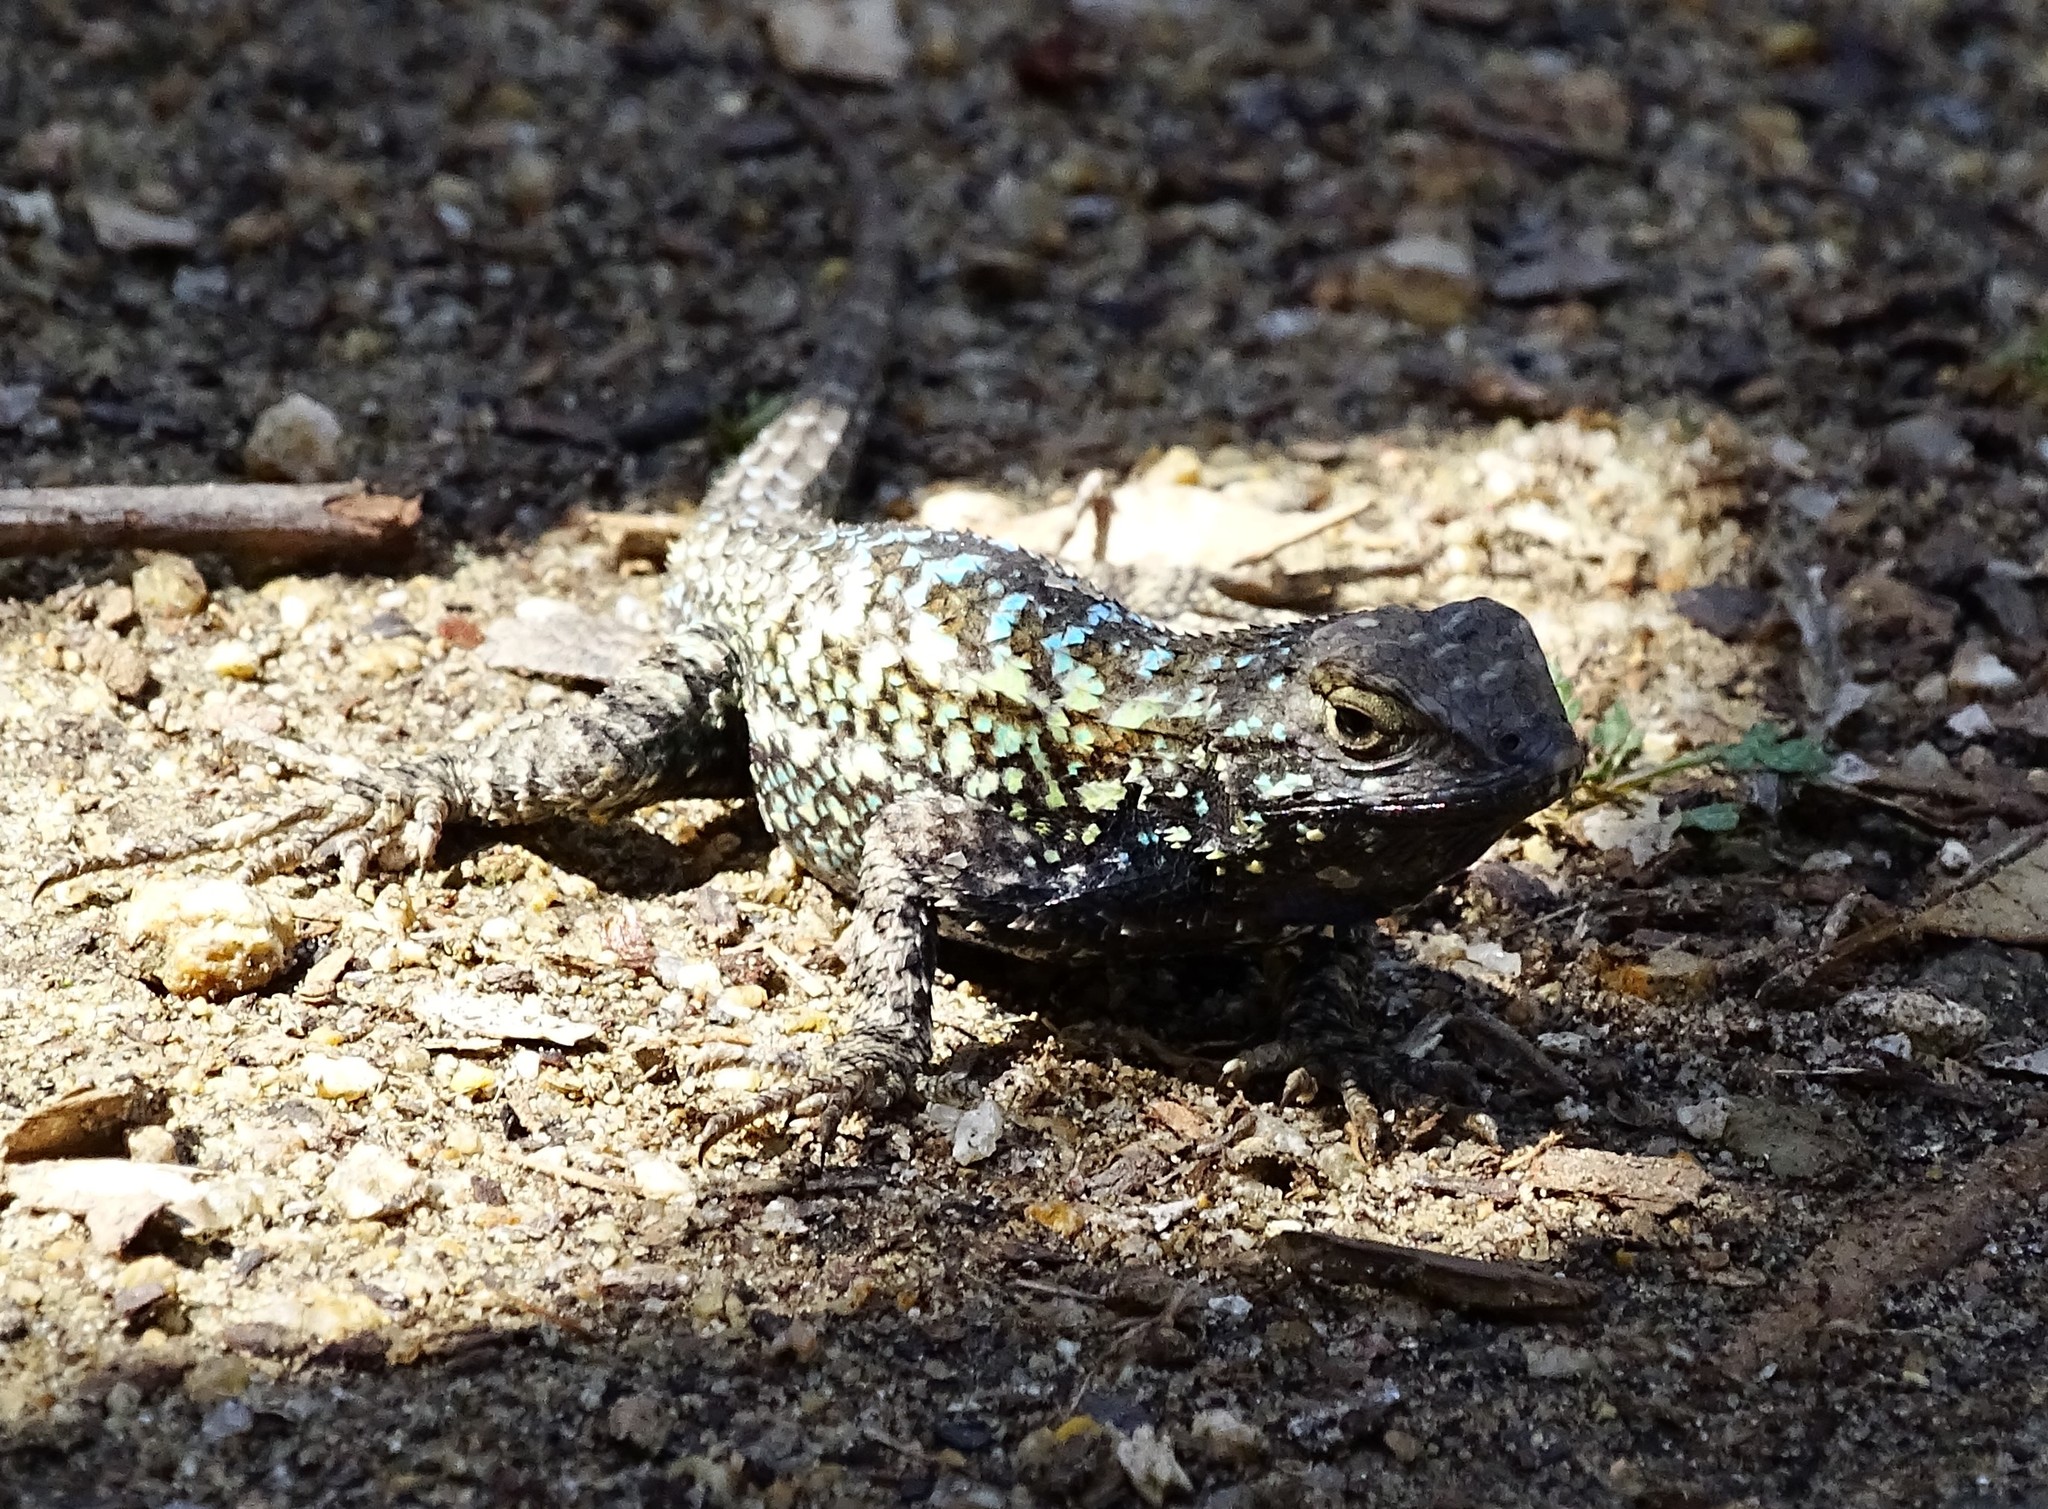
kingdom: Animalia
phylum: Chordata
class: Squamata
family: Phrynosomatidae
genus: Sceloporus
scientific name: Sceloporus occidentalis
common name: Western fence lizard
